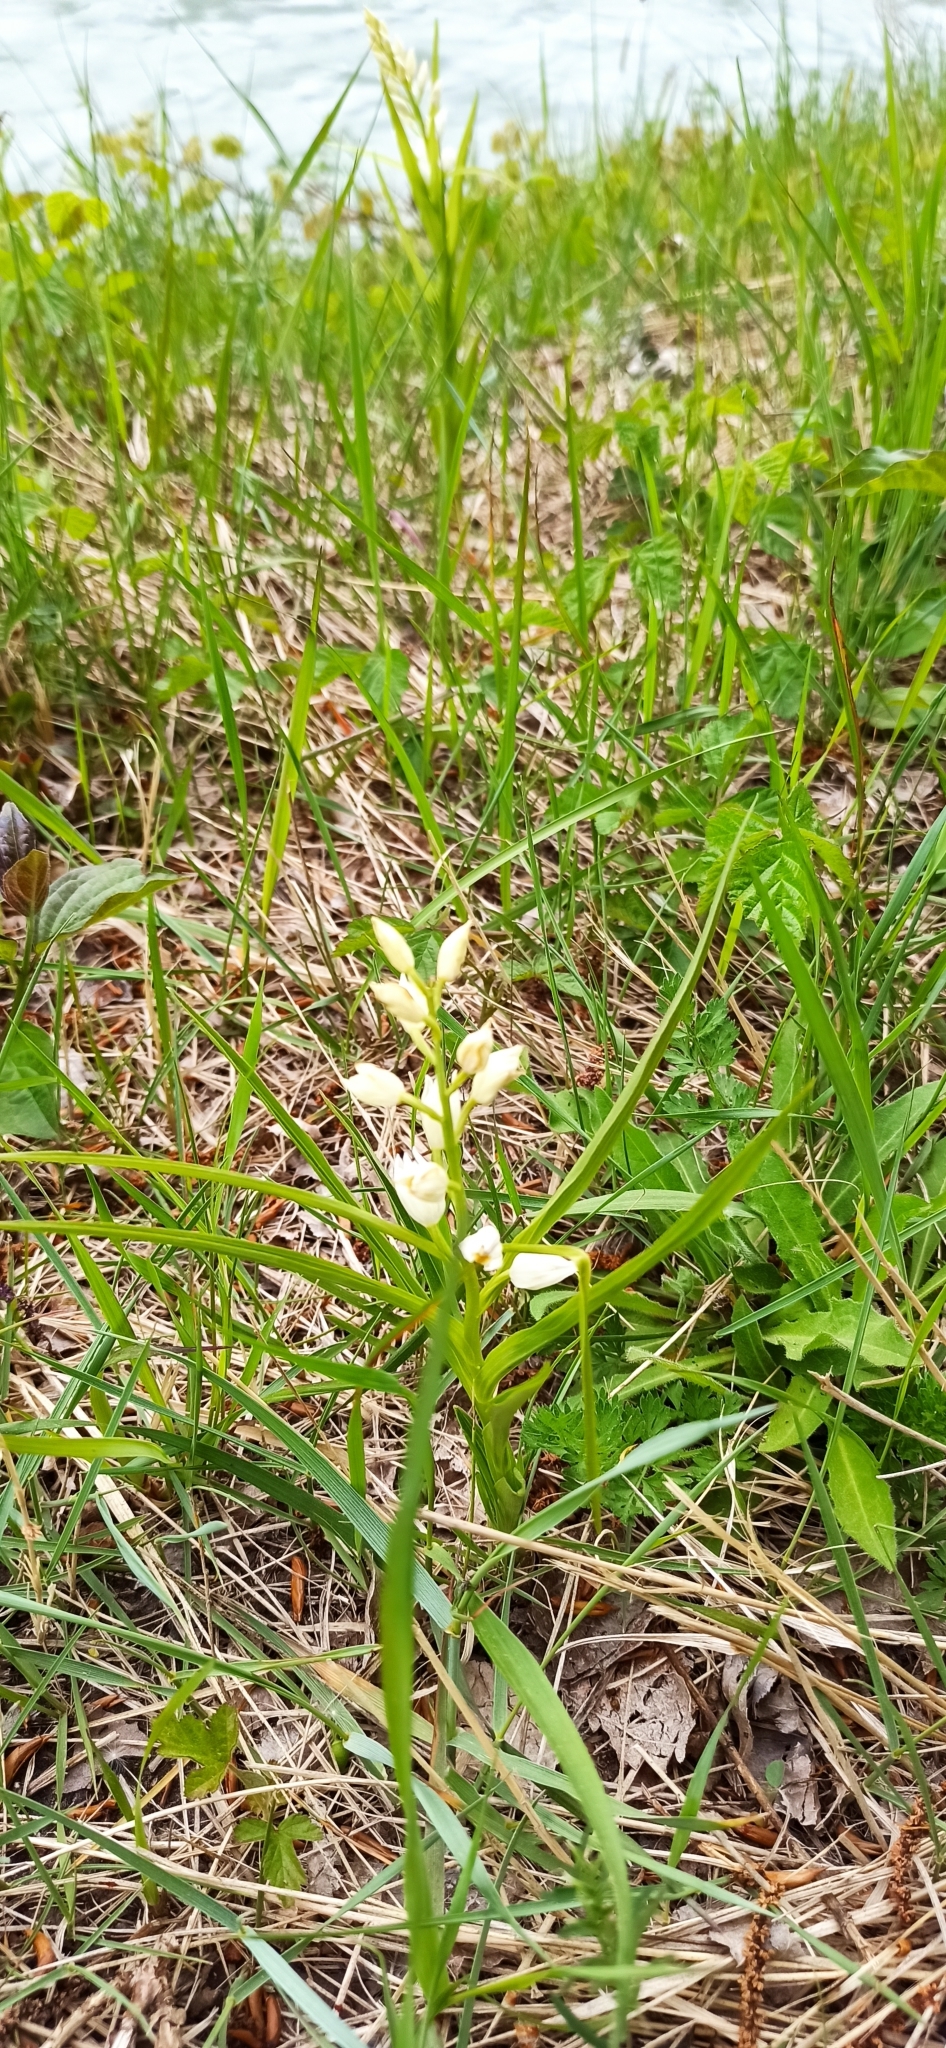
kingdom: Plantae
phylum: Tracheophyta
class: Liliopsida
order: Asparagales
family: Orchidaceae
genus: Cephalanthera
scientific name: Cephalanthera longifolia
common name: Narrow-leaved helleborine
